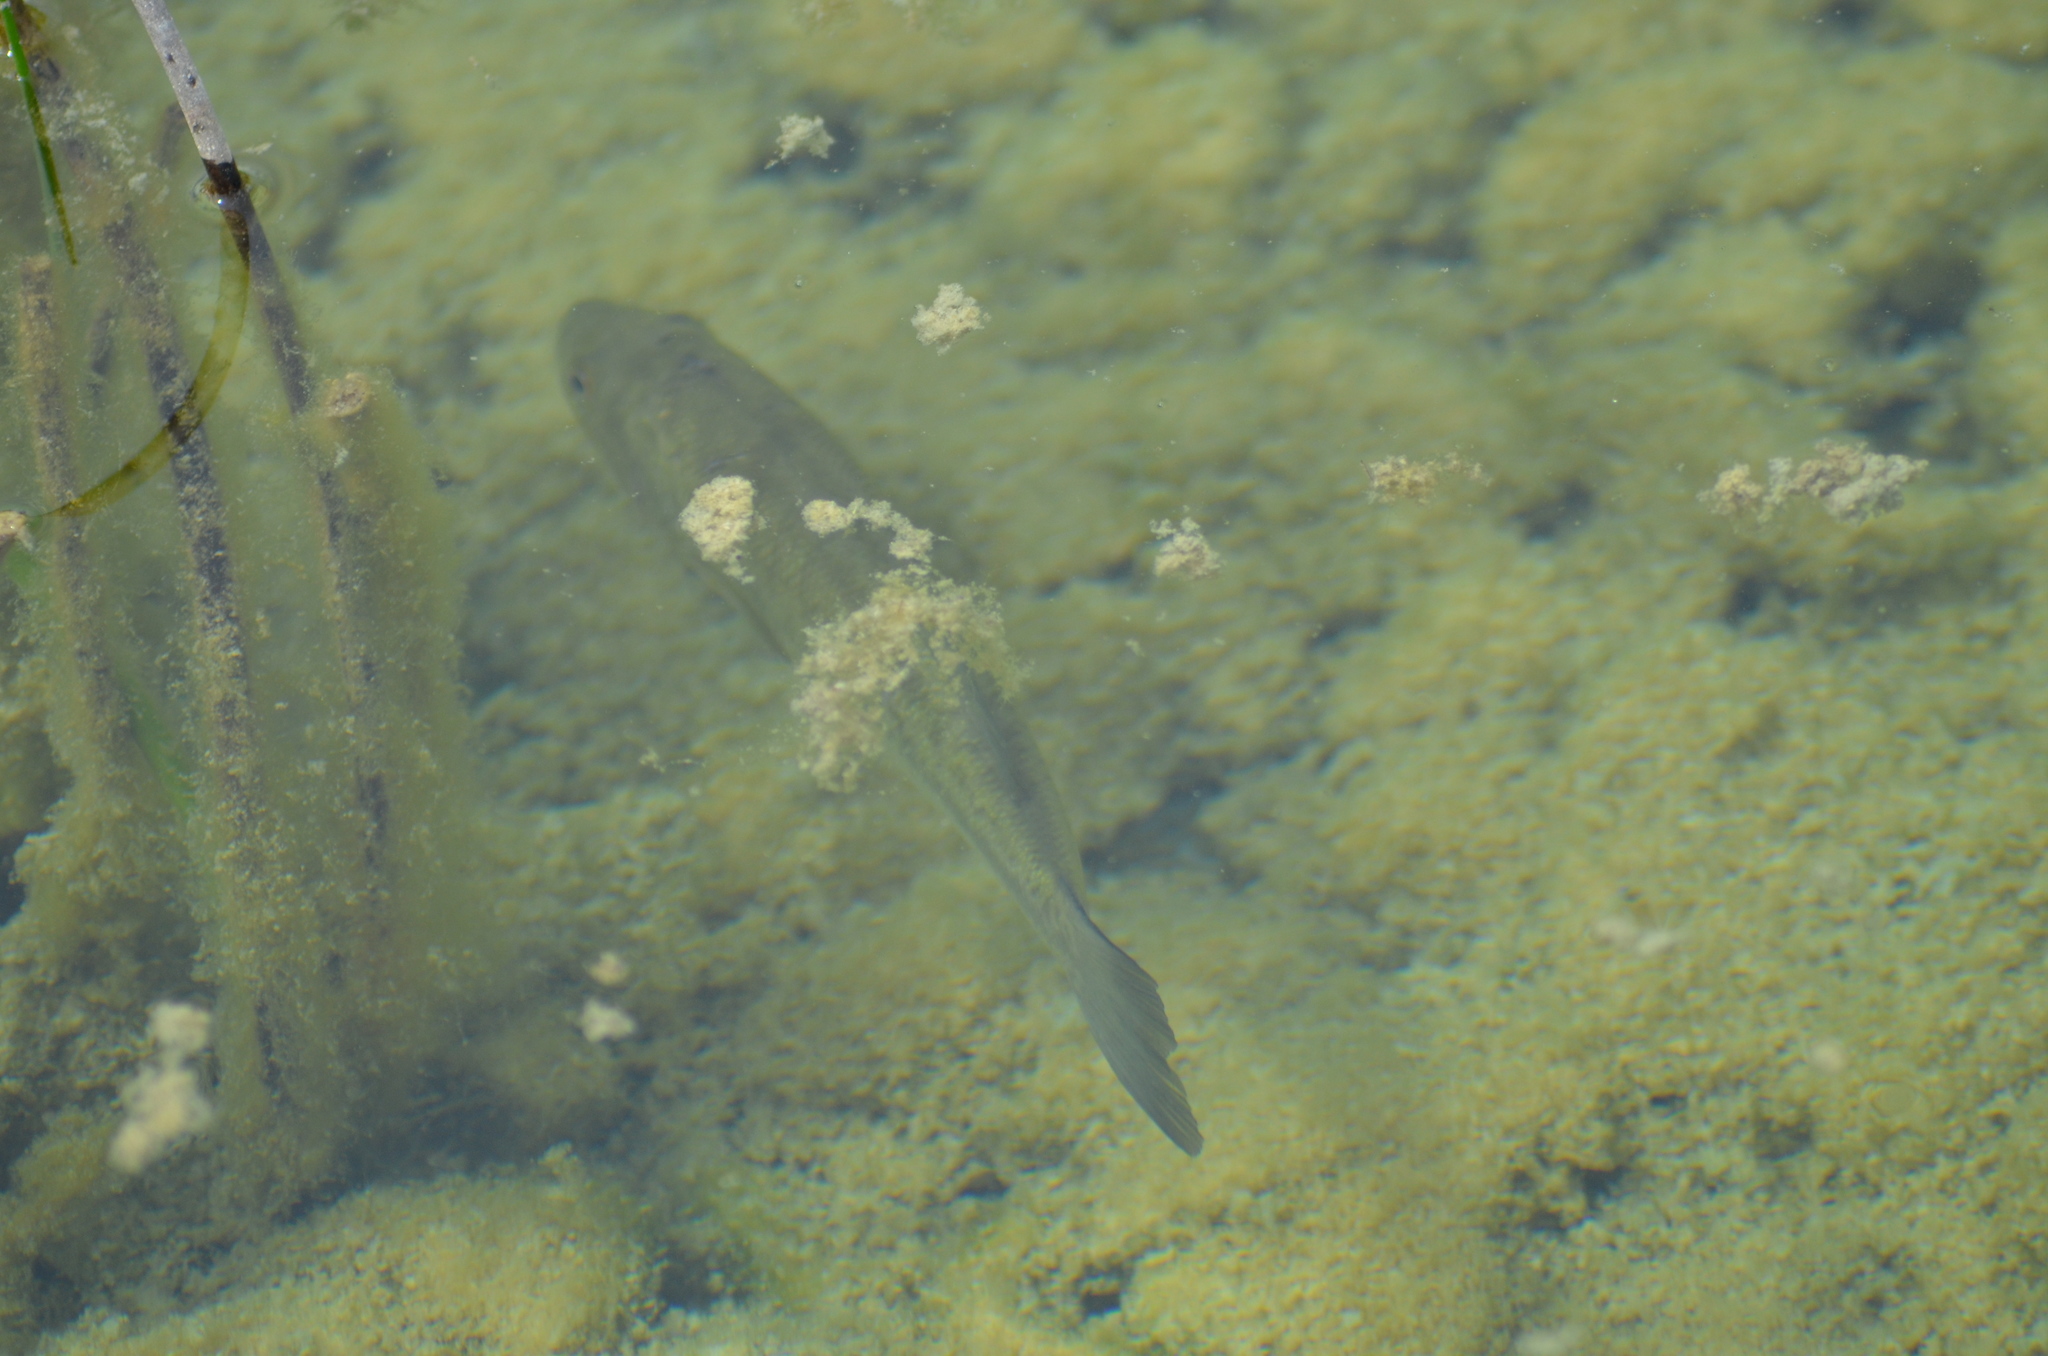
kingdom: Animalia
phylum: Chordata
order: Perciformes
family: Centrarchidae
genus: Micropterus
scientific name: Micropterus
